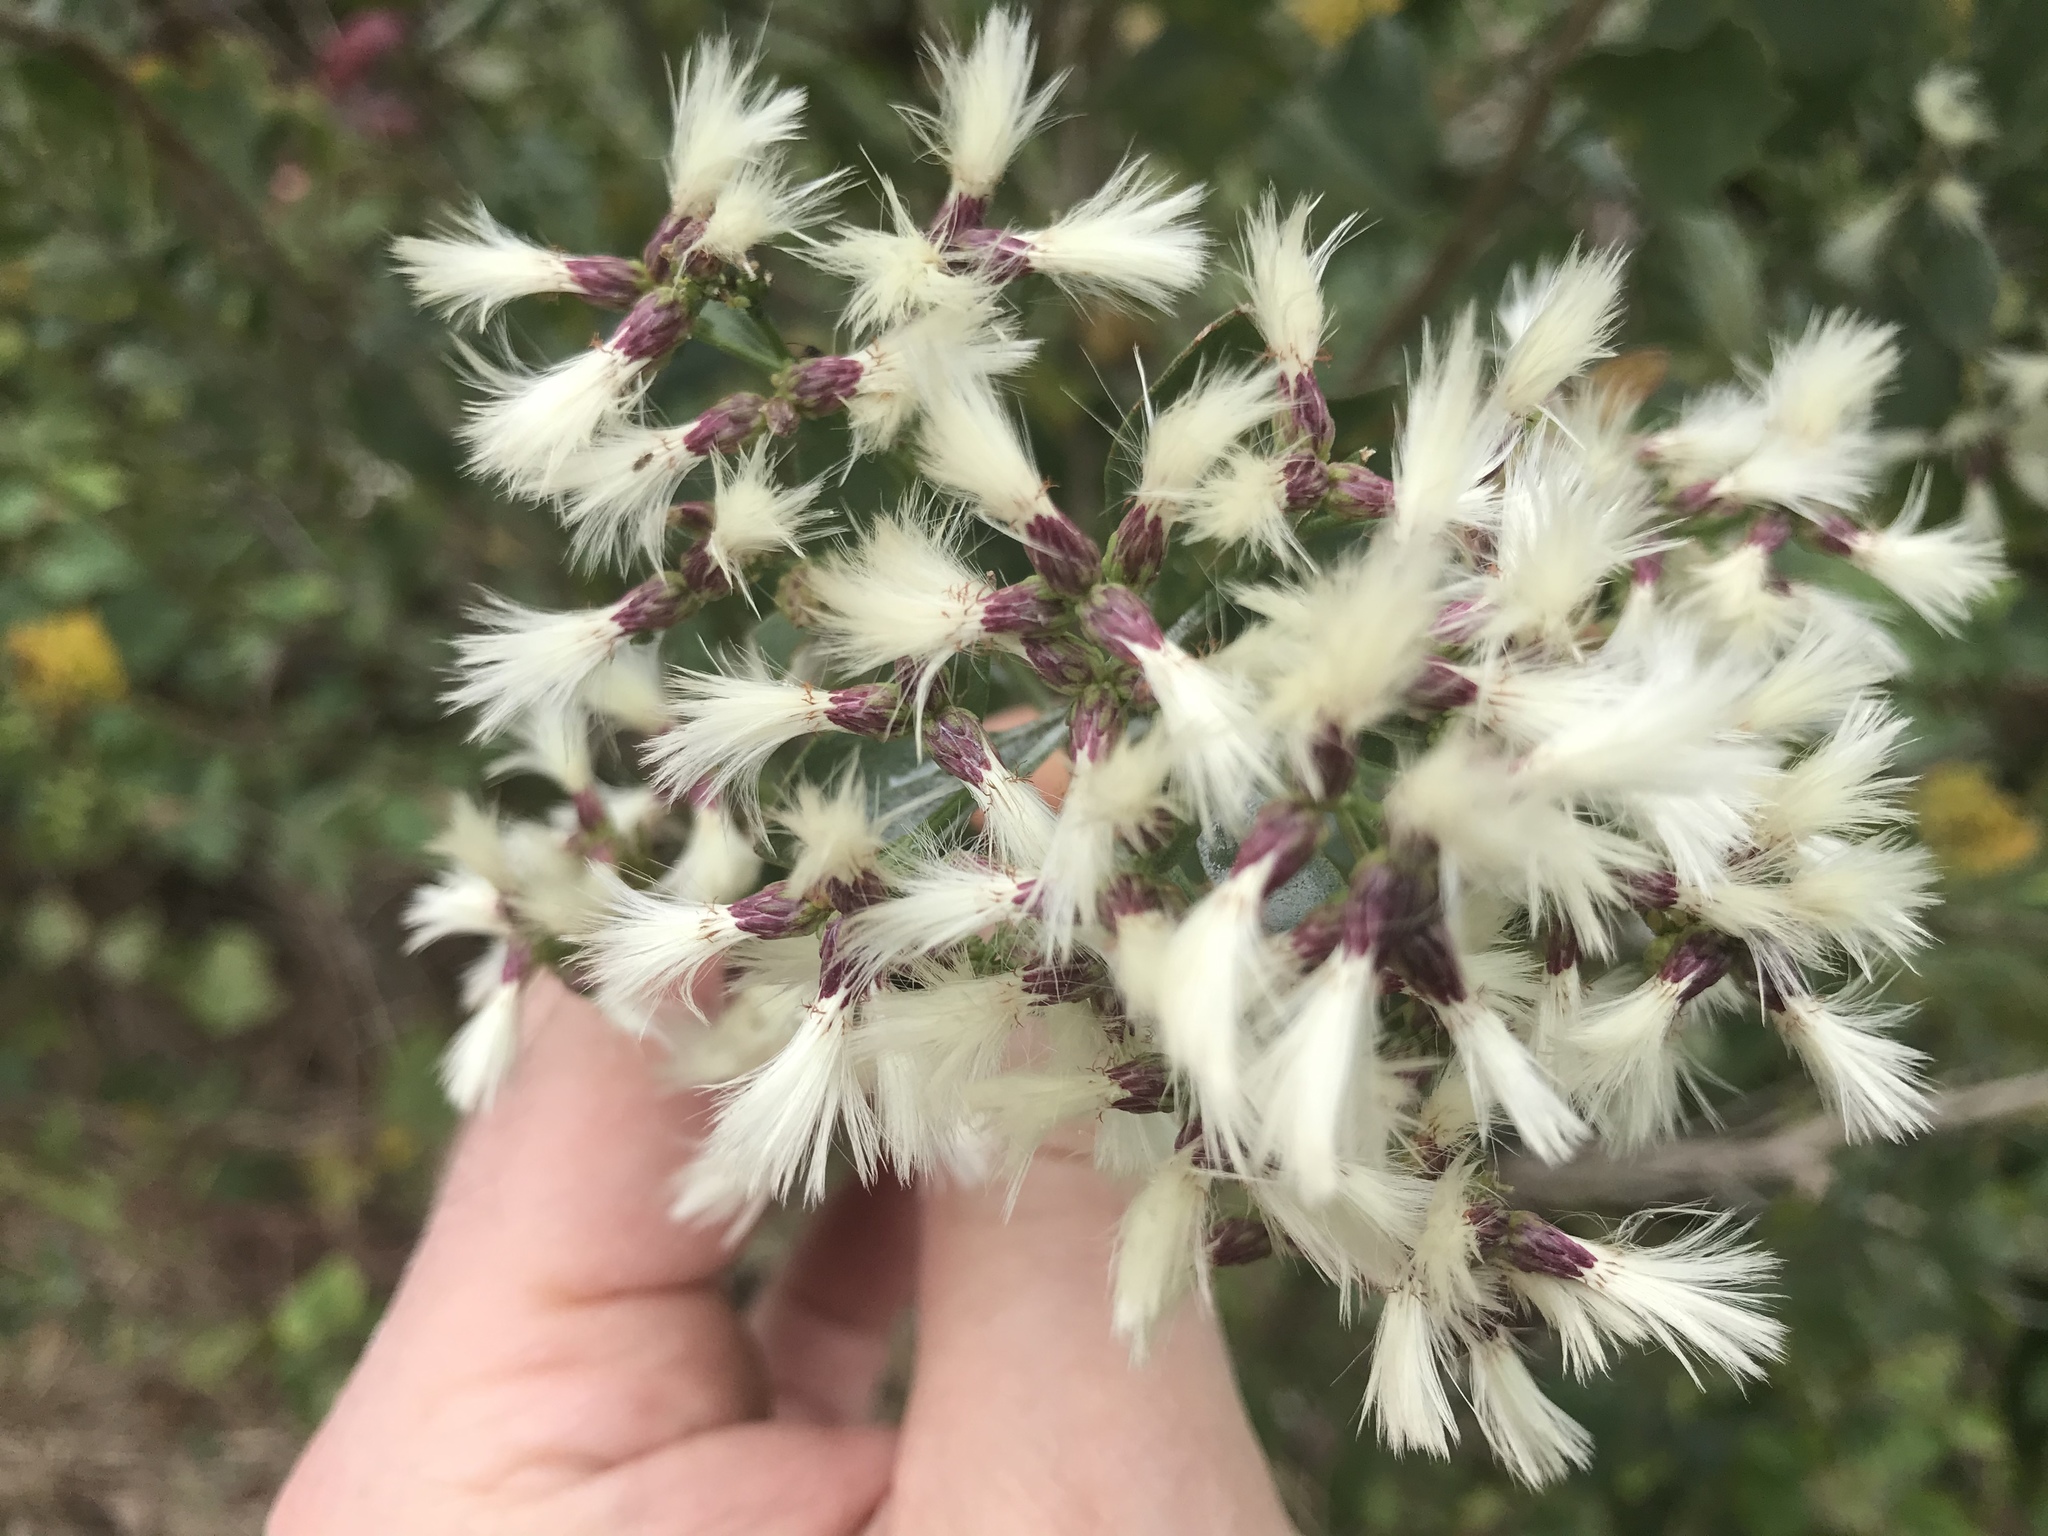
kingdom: Plantae
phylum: Tracheophyta
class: Magnoliopsida
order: Asterales
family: Asteraceae
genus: Baccharis
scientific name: Baccharis halimifolia
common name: Eastern baccharis
